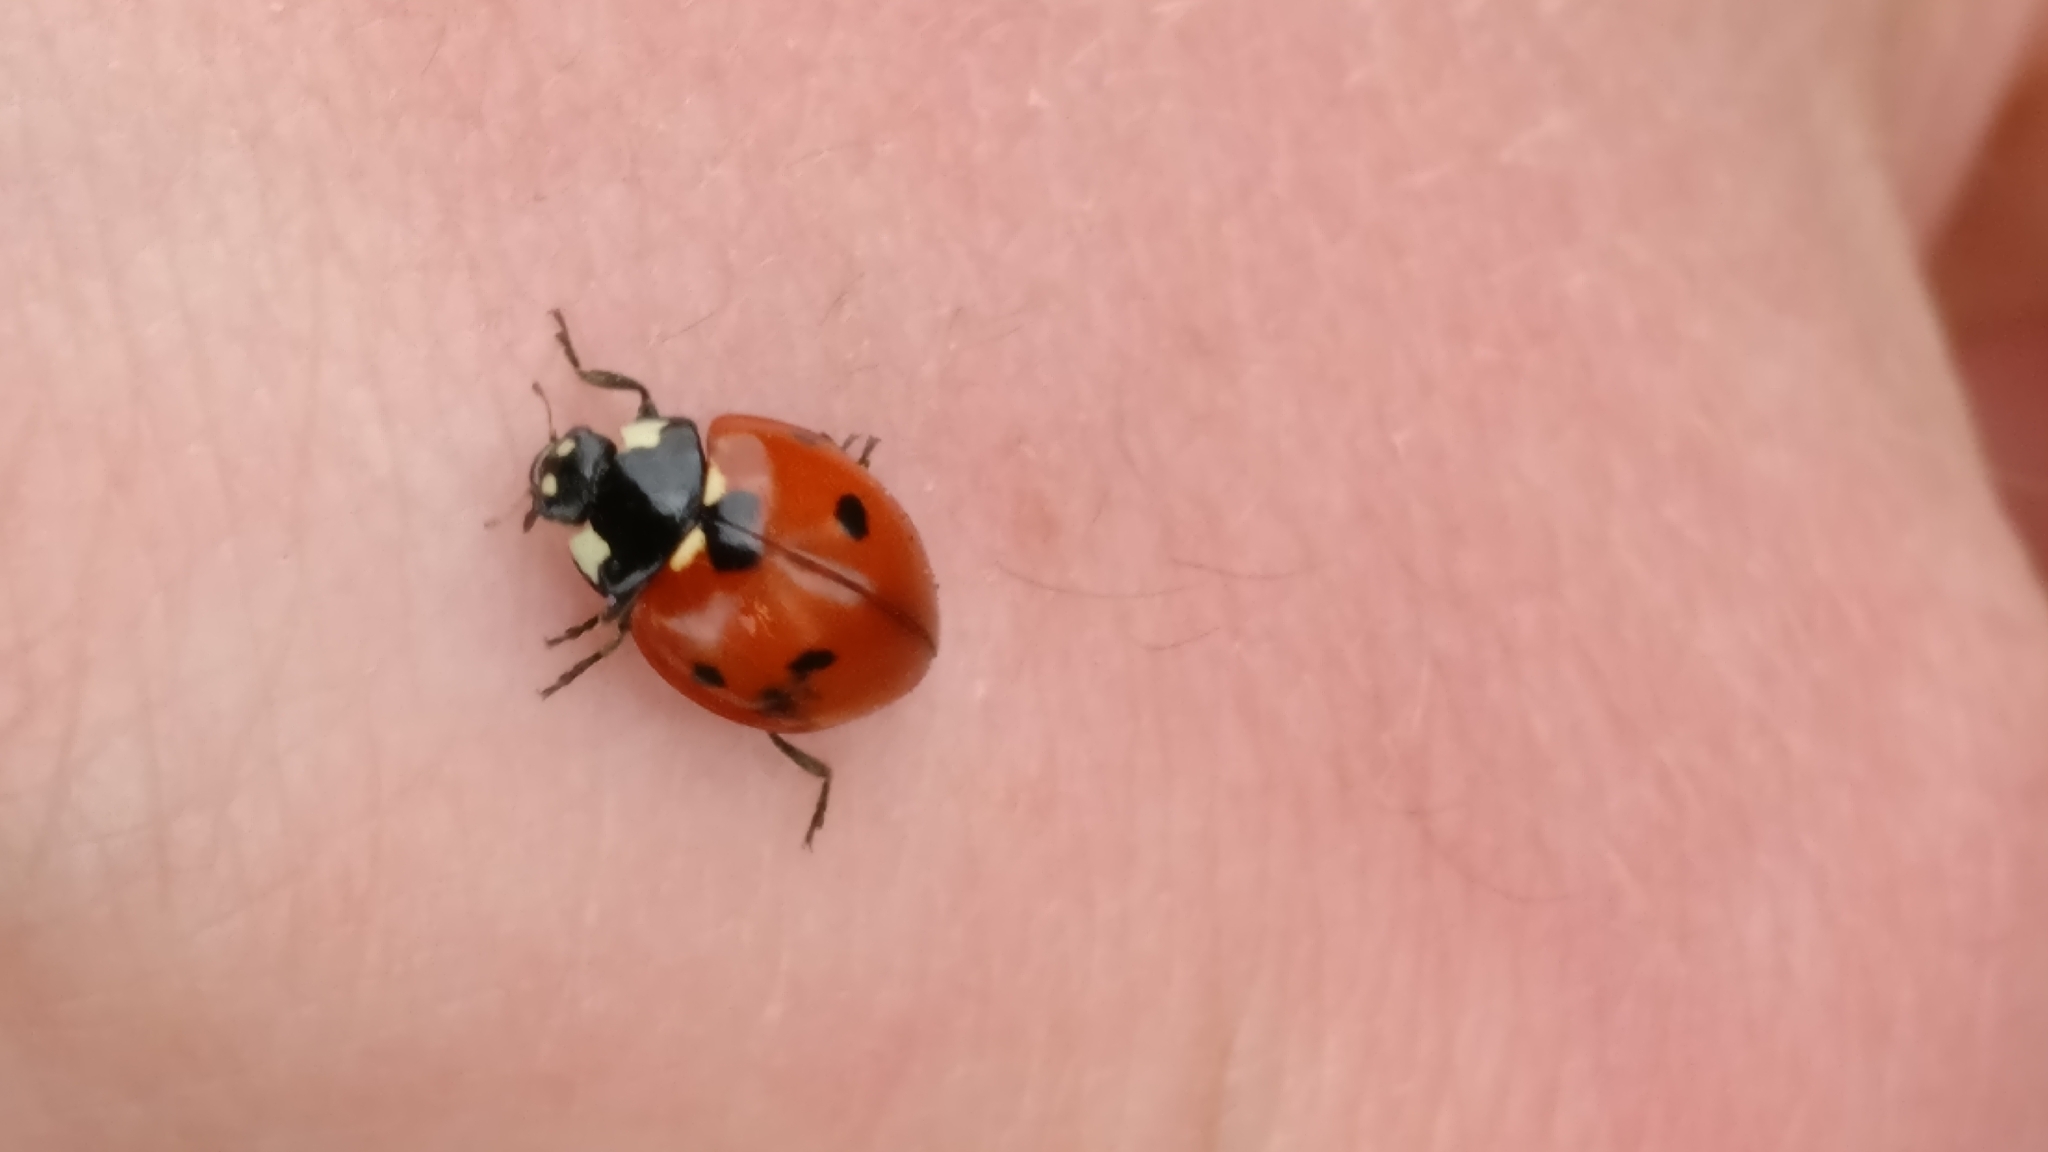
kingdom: Animalia
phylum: Arthropoda
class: Insecta
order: Coleoptera
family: Coccinellidae
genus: Coccinella
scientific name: Coccinella septempunctata
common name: Sevenspotted lady beetle
